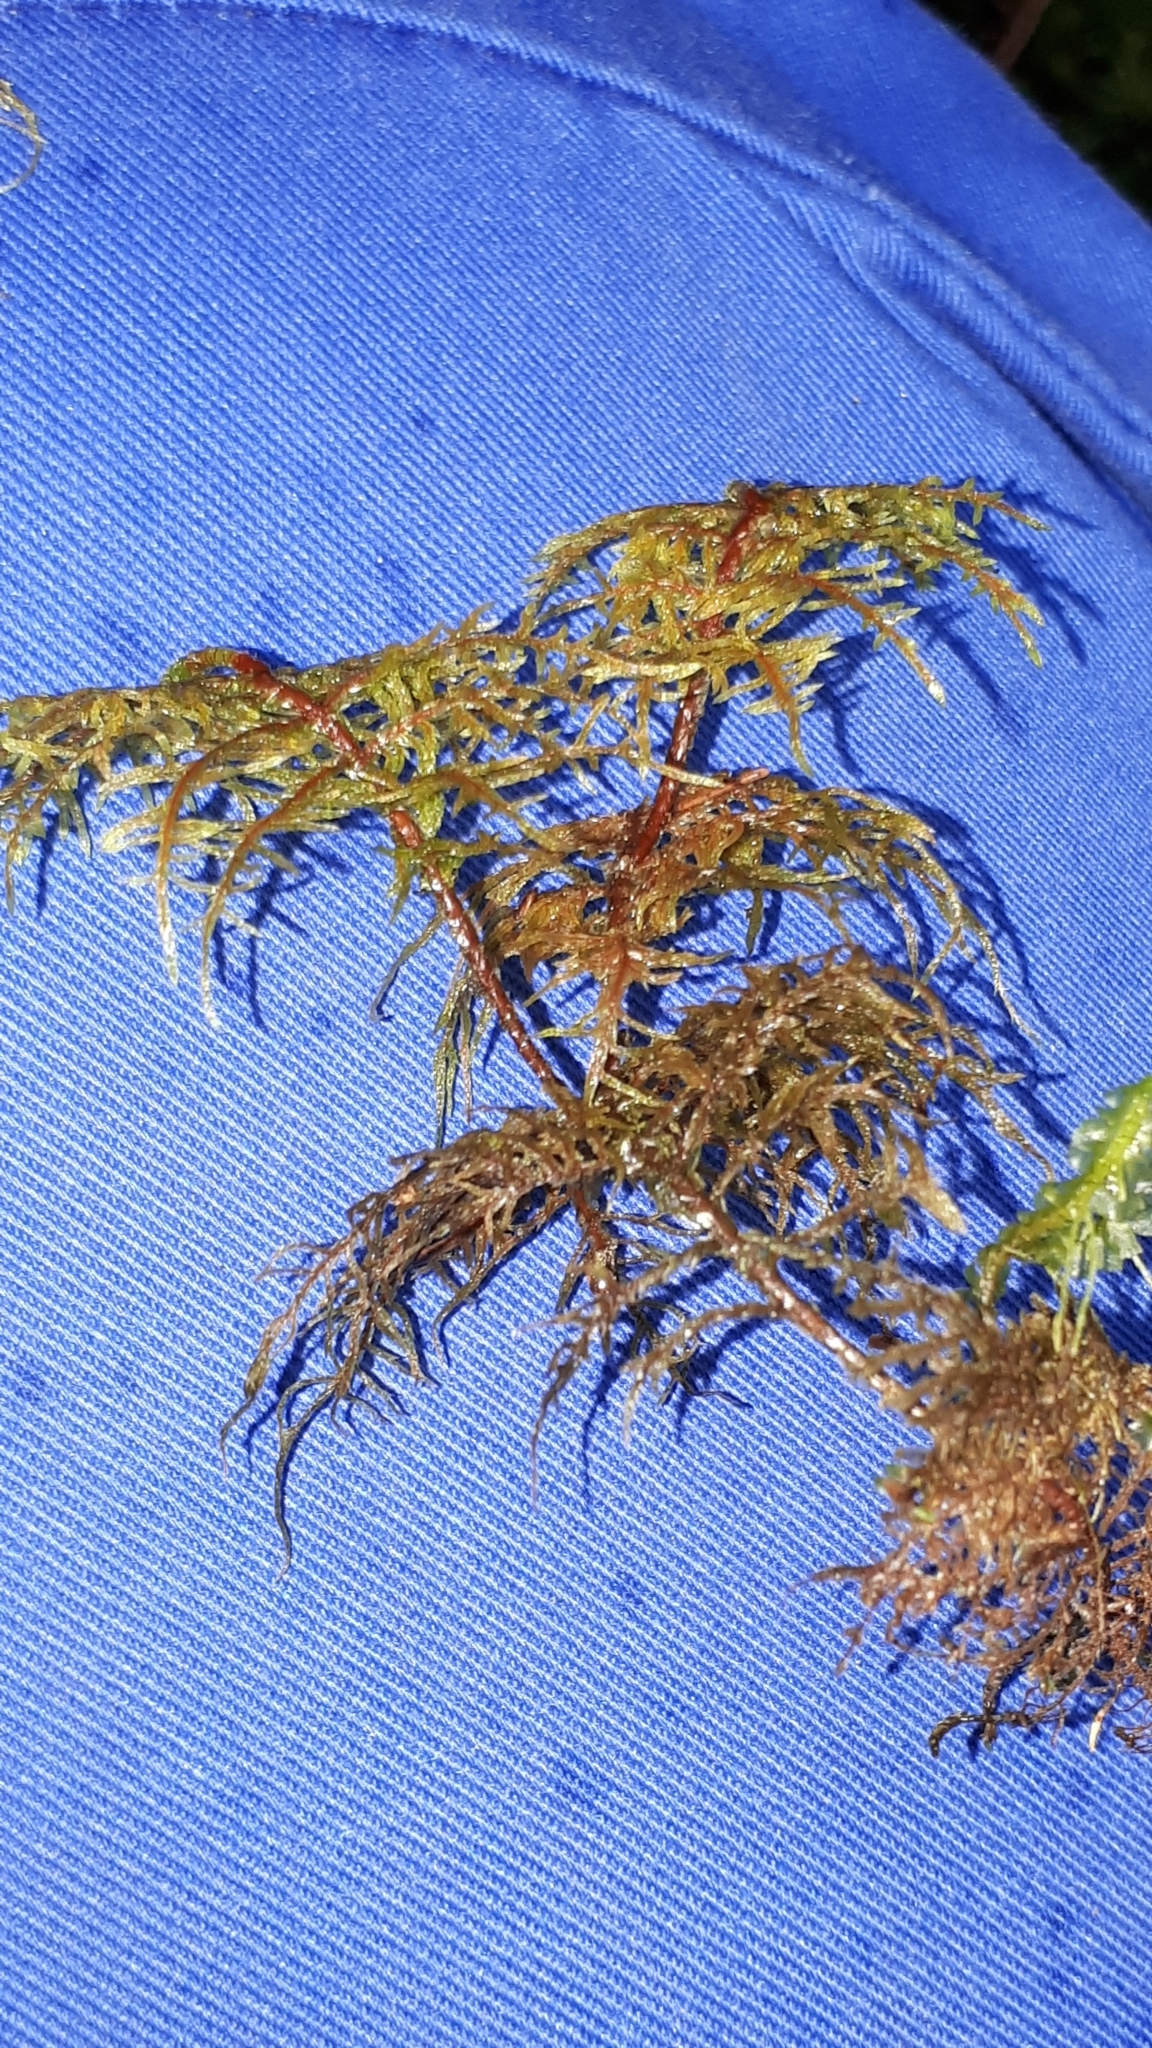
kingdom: Plantae
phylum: Bryophyta
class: Bryopsida
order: Hypnales
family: Hylocomiaceae
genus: Hylocomium
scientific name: Hylocomium splendens
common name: Stairstep moss
